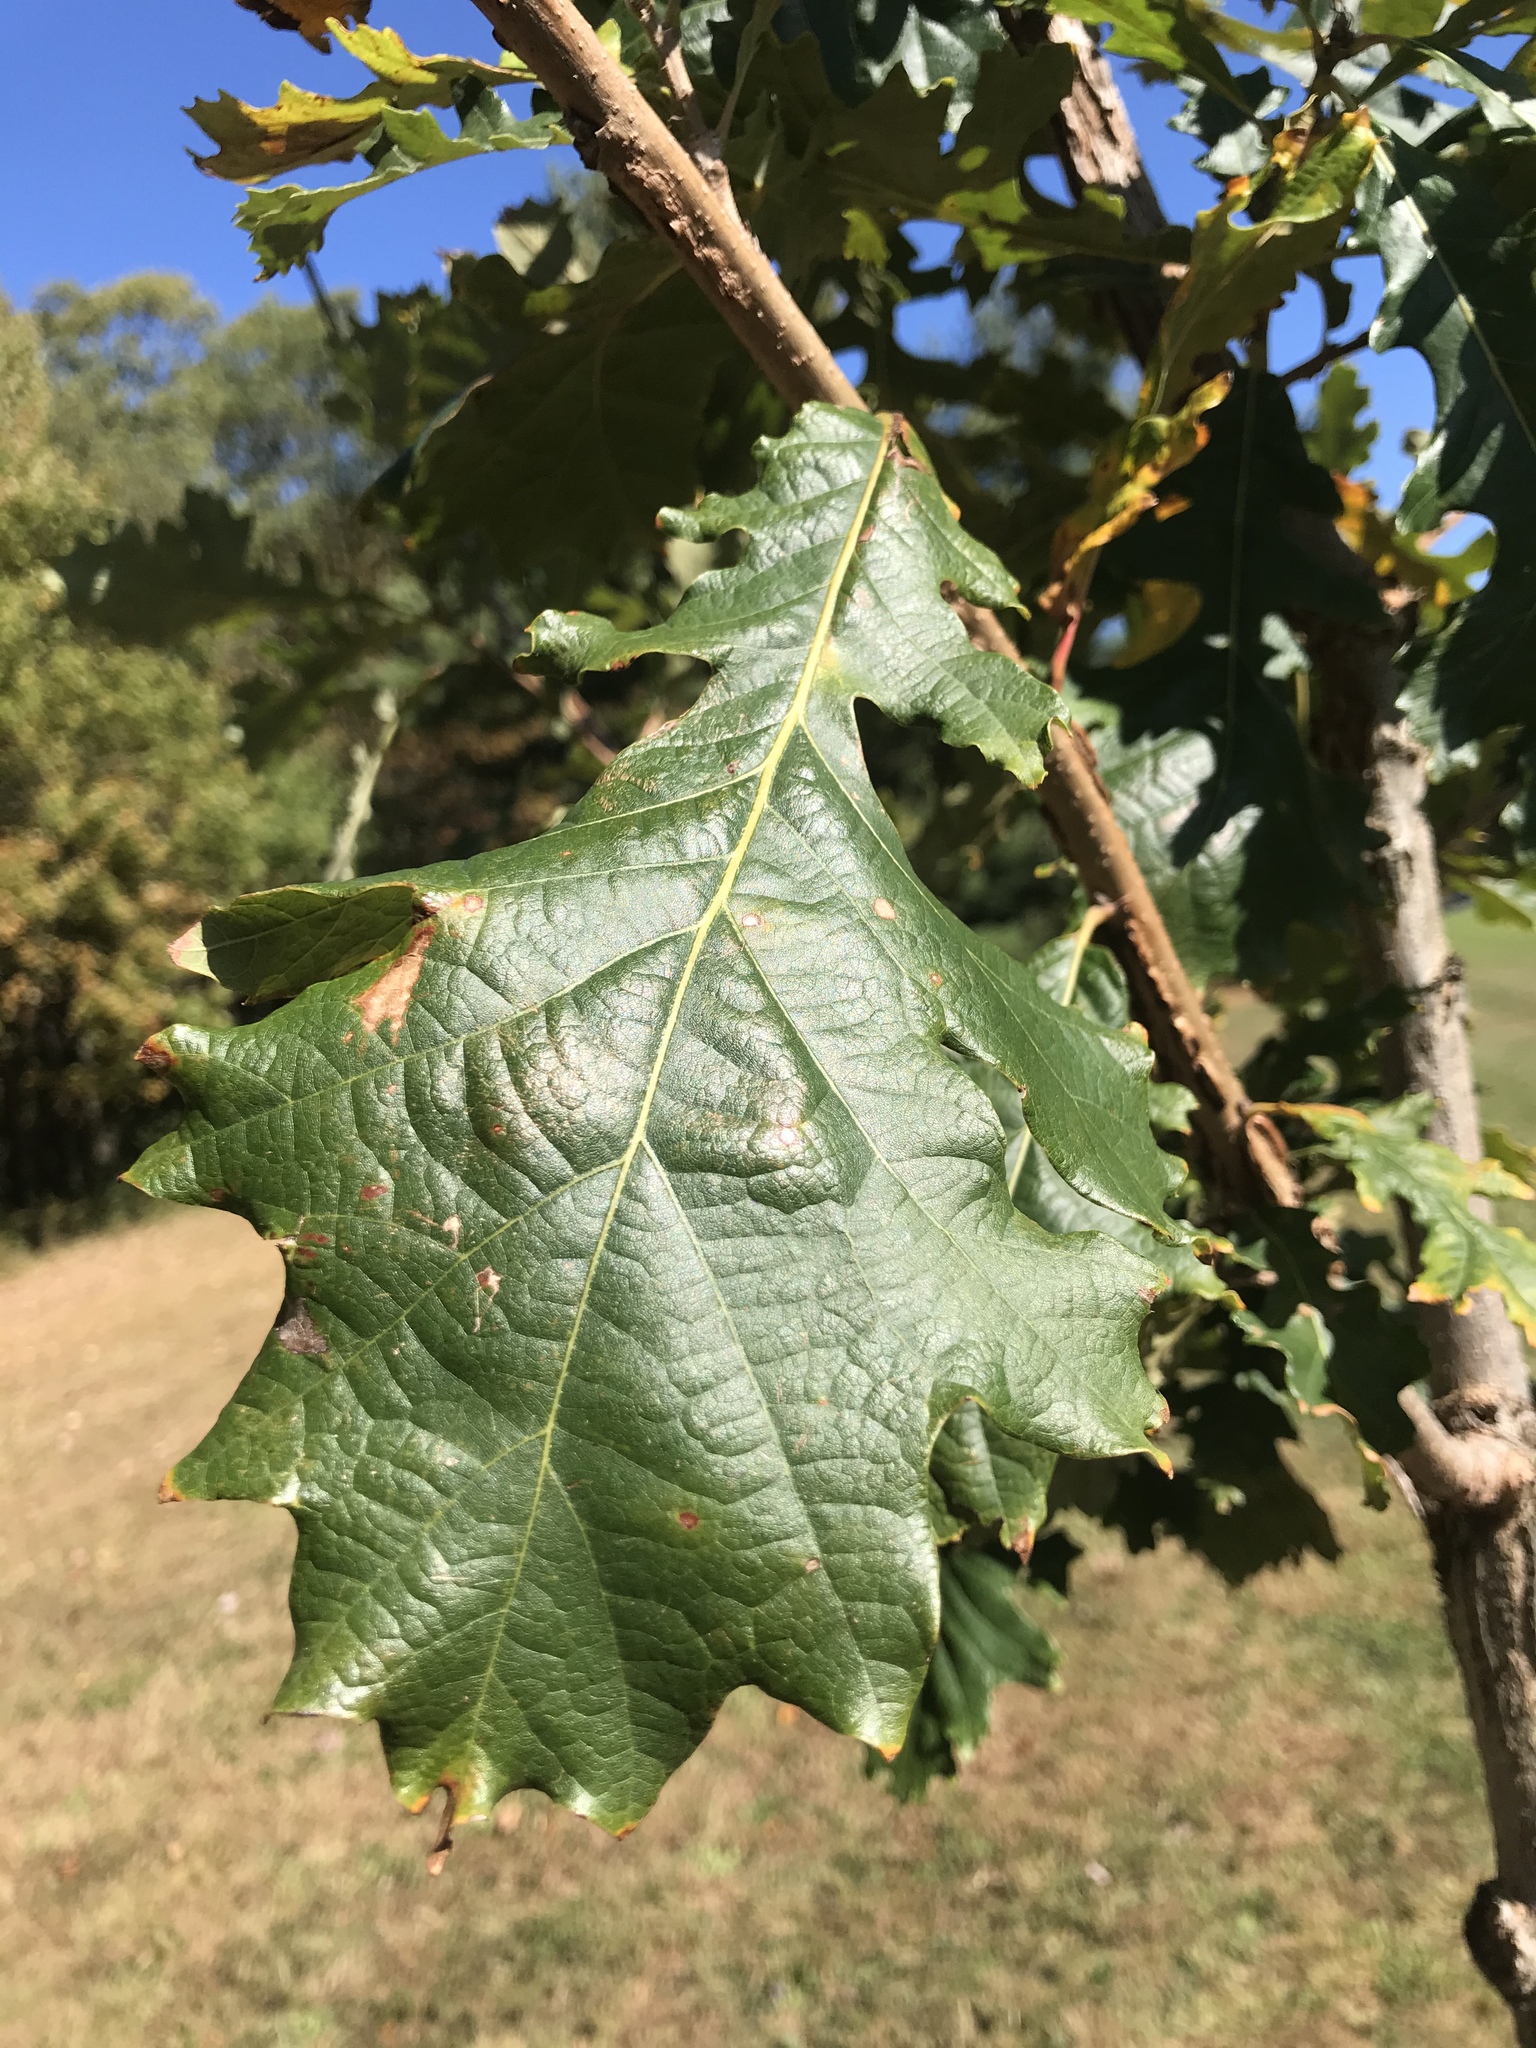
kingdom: Plantae
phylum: Tracheophyta
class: Magnoliopsida
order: Fagales
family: Fagaceae
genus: Quercus
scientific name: Quercus macrocarpa
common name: Bur oak
